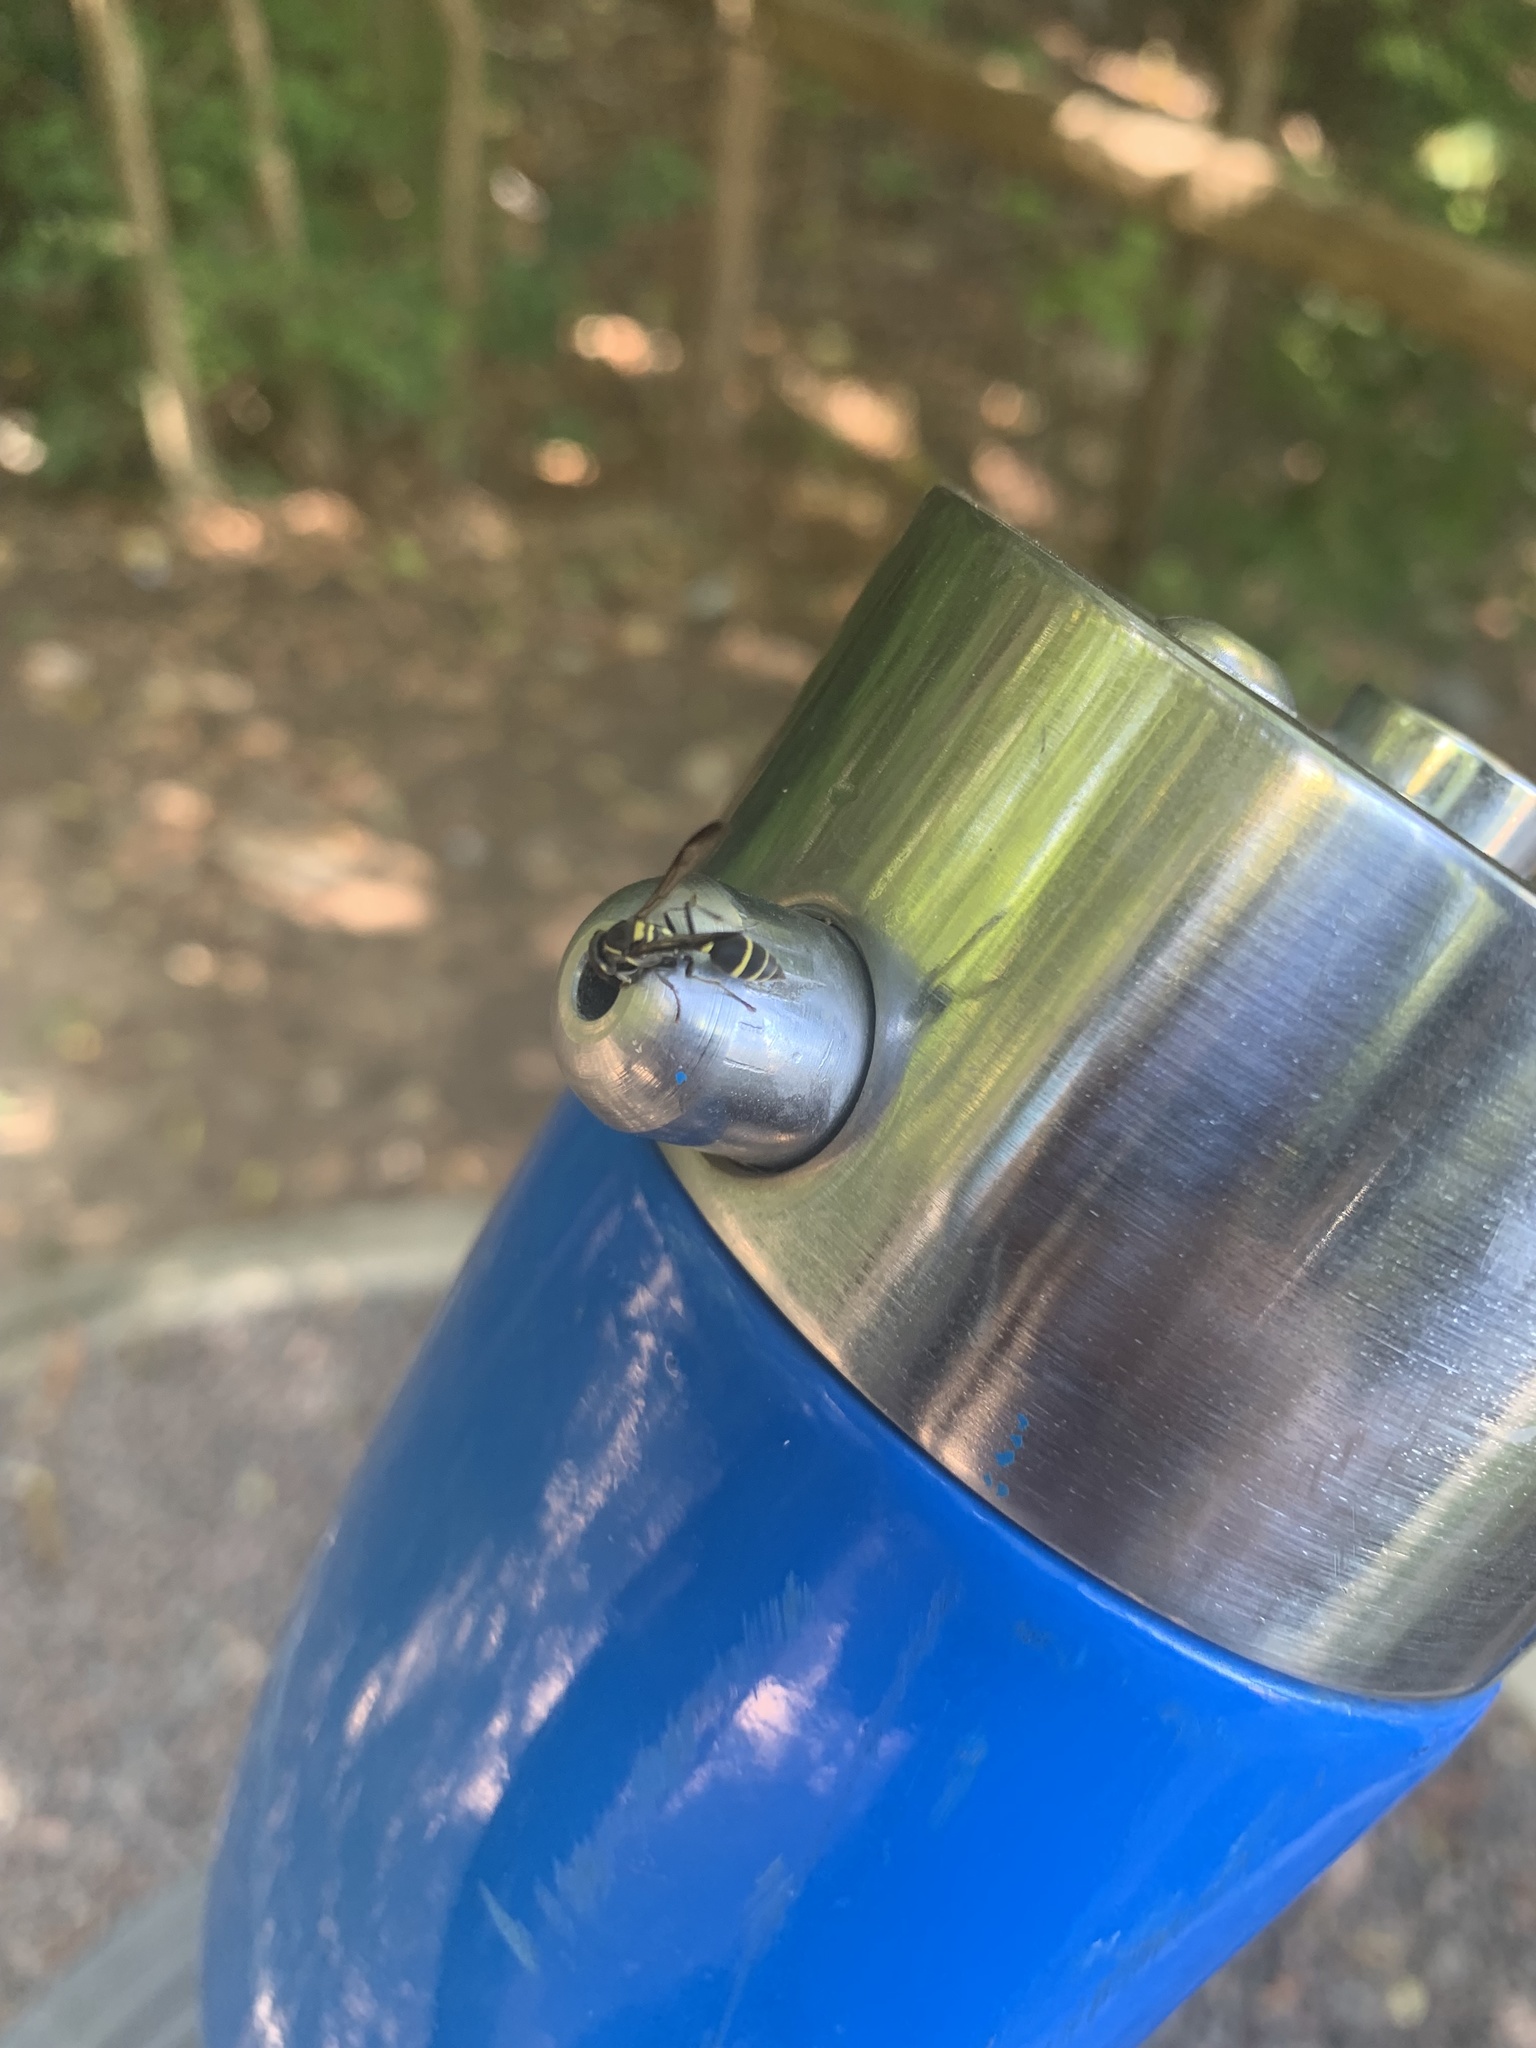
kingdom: Animalia
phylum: Arthropoda
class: Insecta
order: Hymenoptera
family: Eumenidae
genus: Polybia
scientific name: Polybia occidentalis
